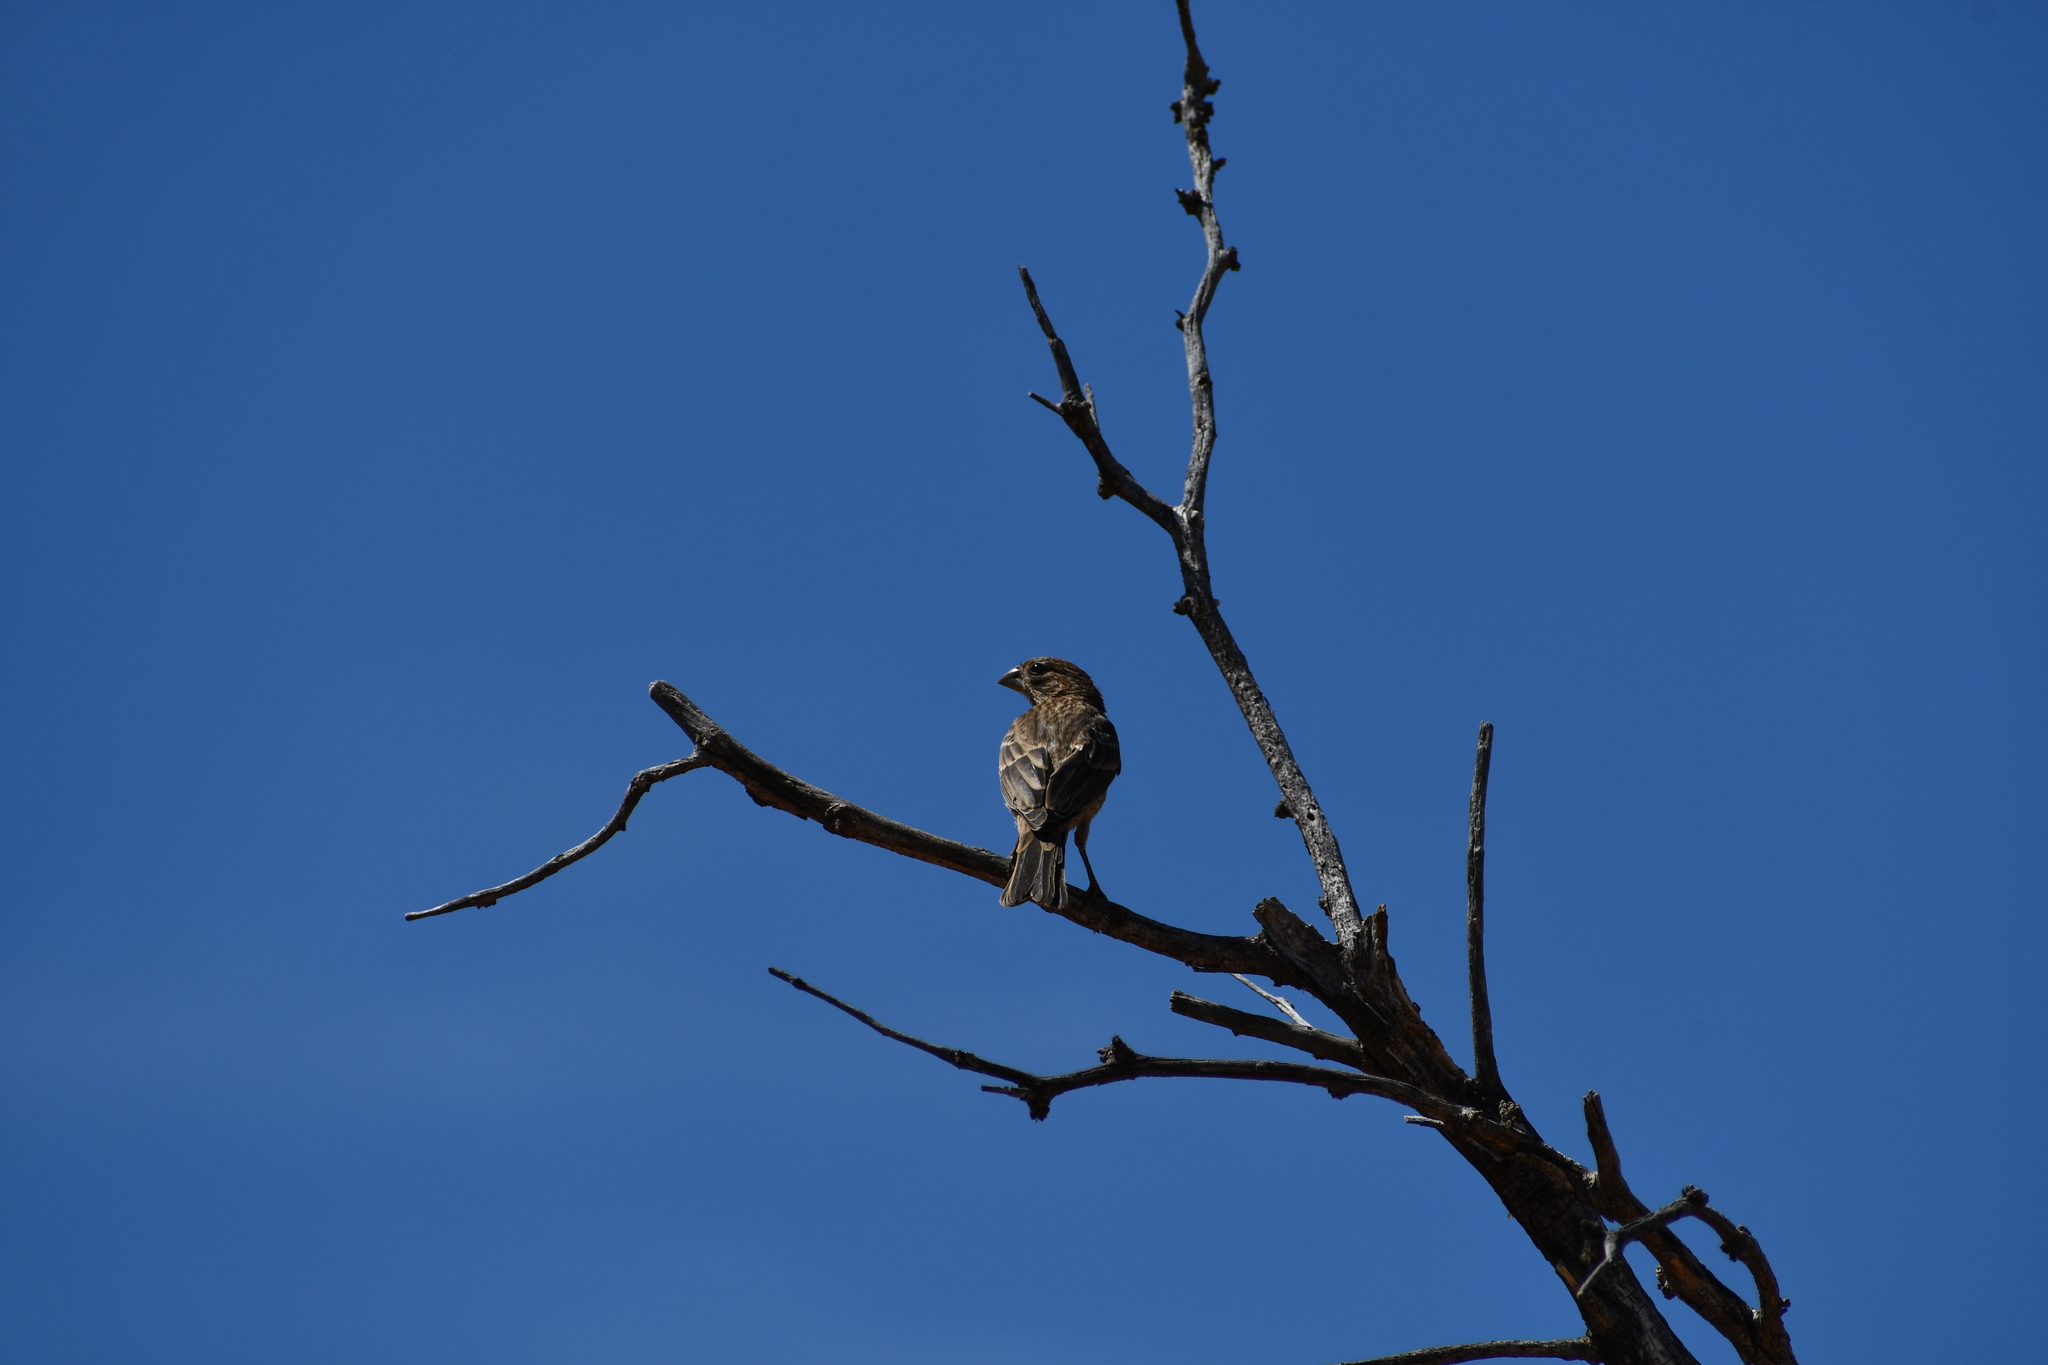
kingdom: Animalia
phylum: Chordata
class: Aves
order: Passeriformes
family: Fringillidae
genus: Haemorhous
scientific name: Haemorhous mexicanus
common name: House finch
